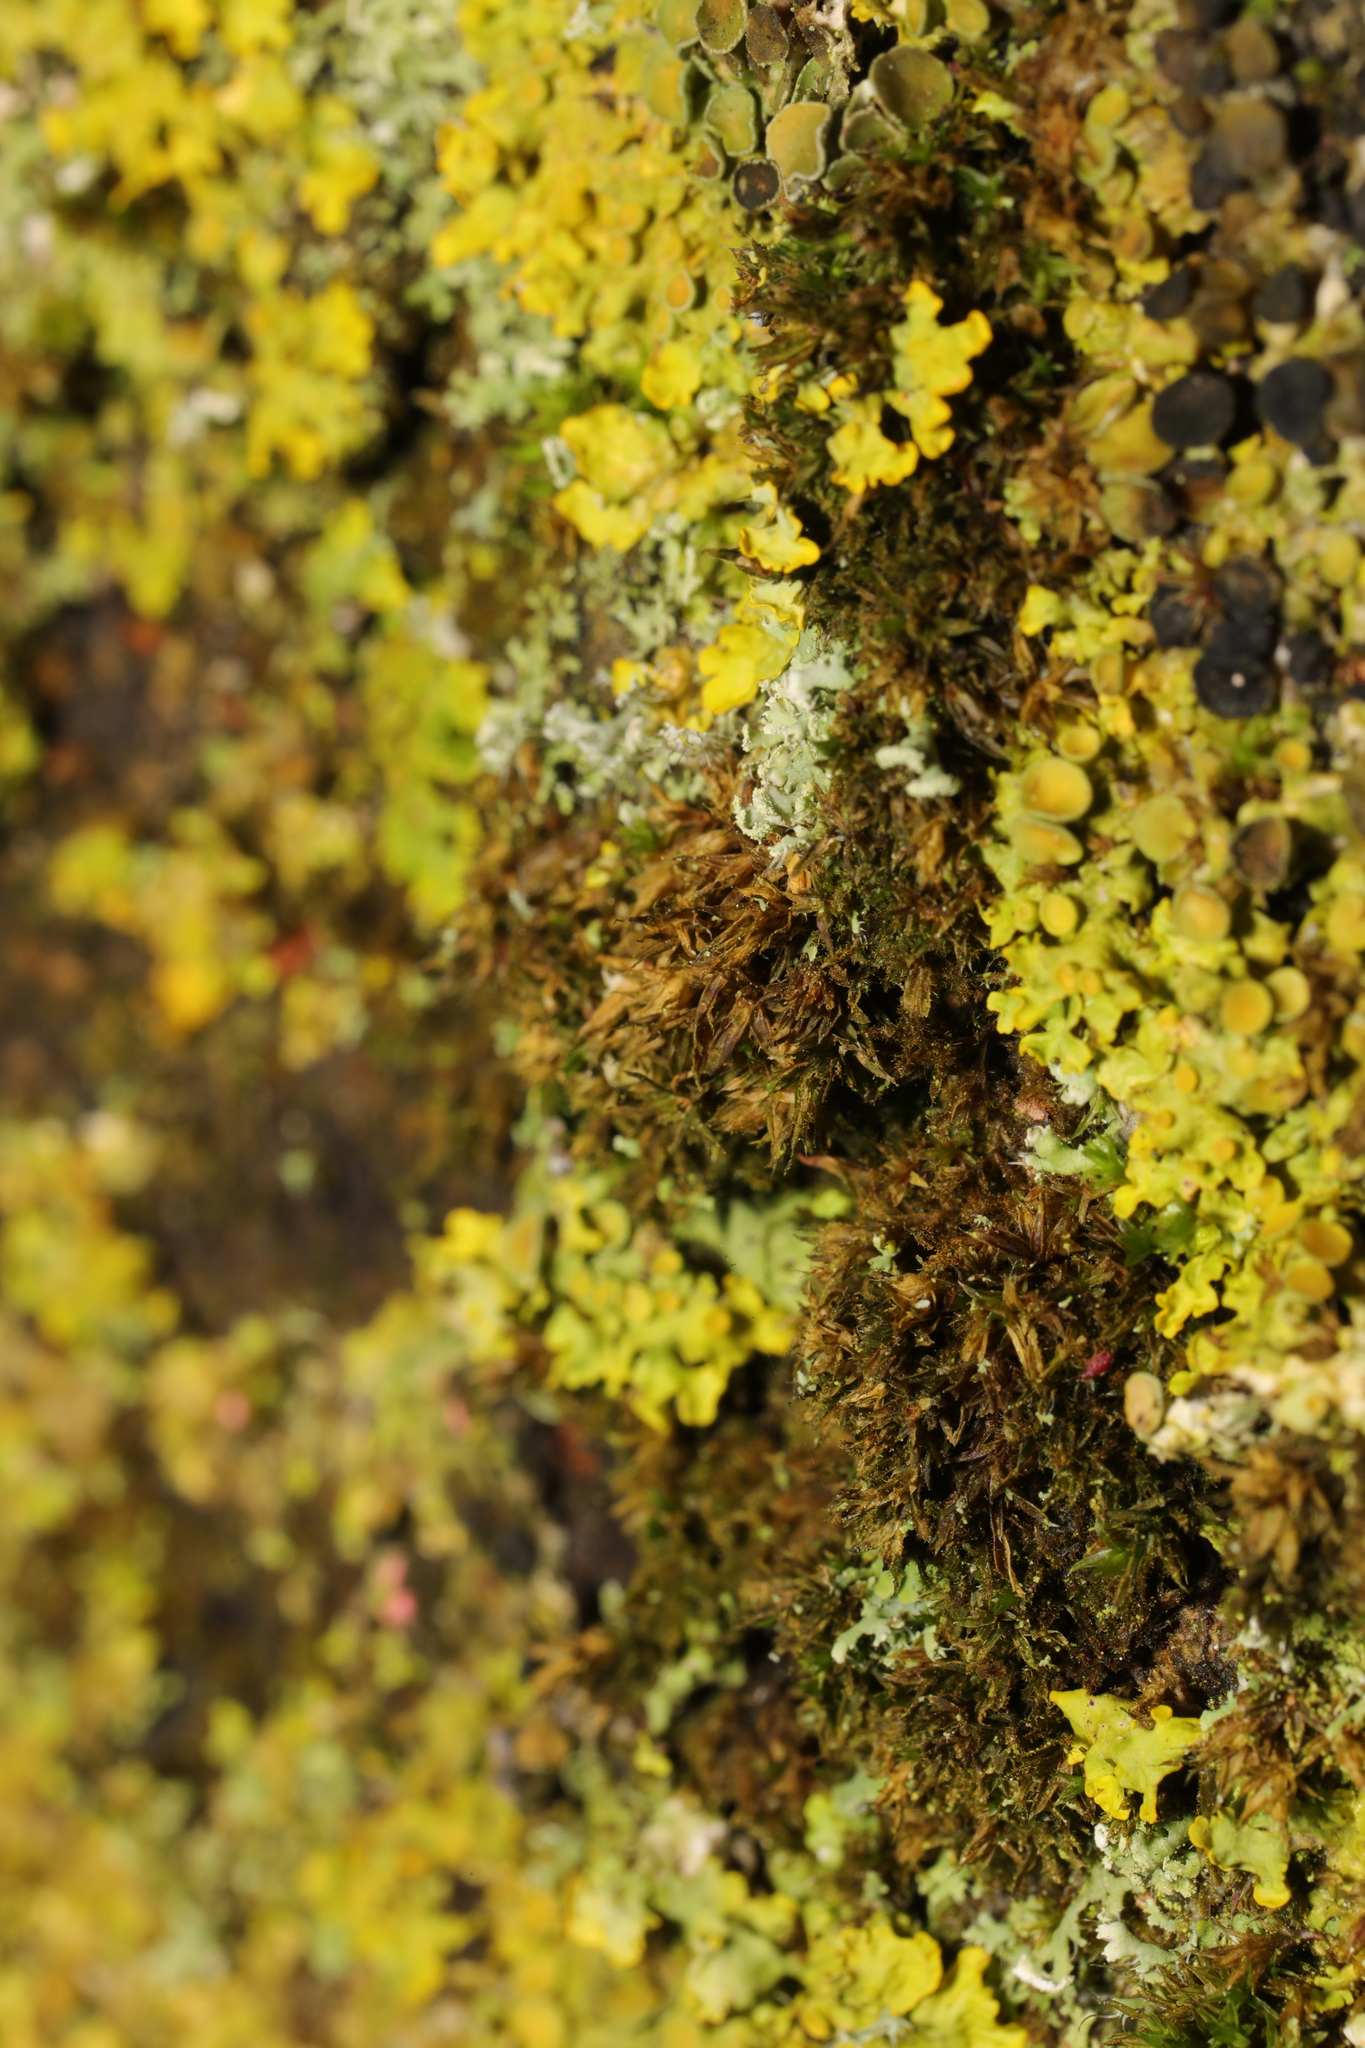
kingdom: Fungi
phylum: Ascomycota
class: Lecanoromycetes
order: Teloschistales
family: Teloschistaceae
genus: Xanthoria
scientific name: Xanthoria parietina
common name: Common orange lichen
